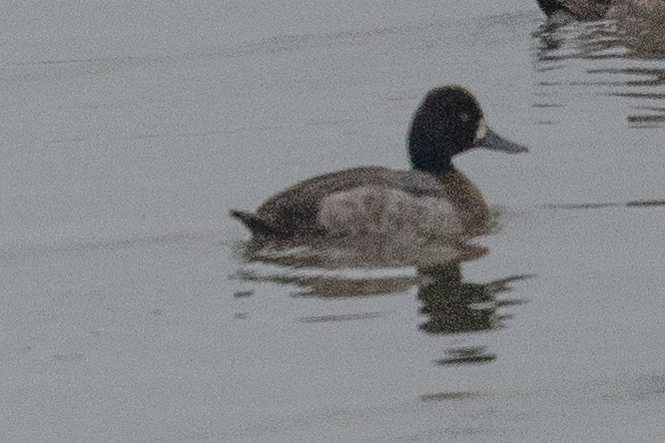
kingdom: Animalia
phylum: Chordata
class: Aves
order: Anseriformes
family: Anatidae
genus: Aythya
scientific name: Aythya affinis
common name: Lesser scaup
